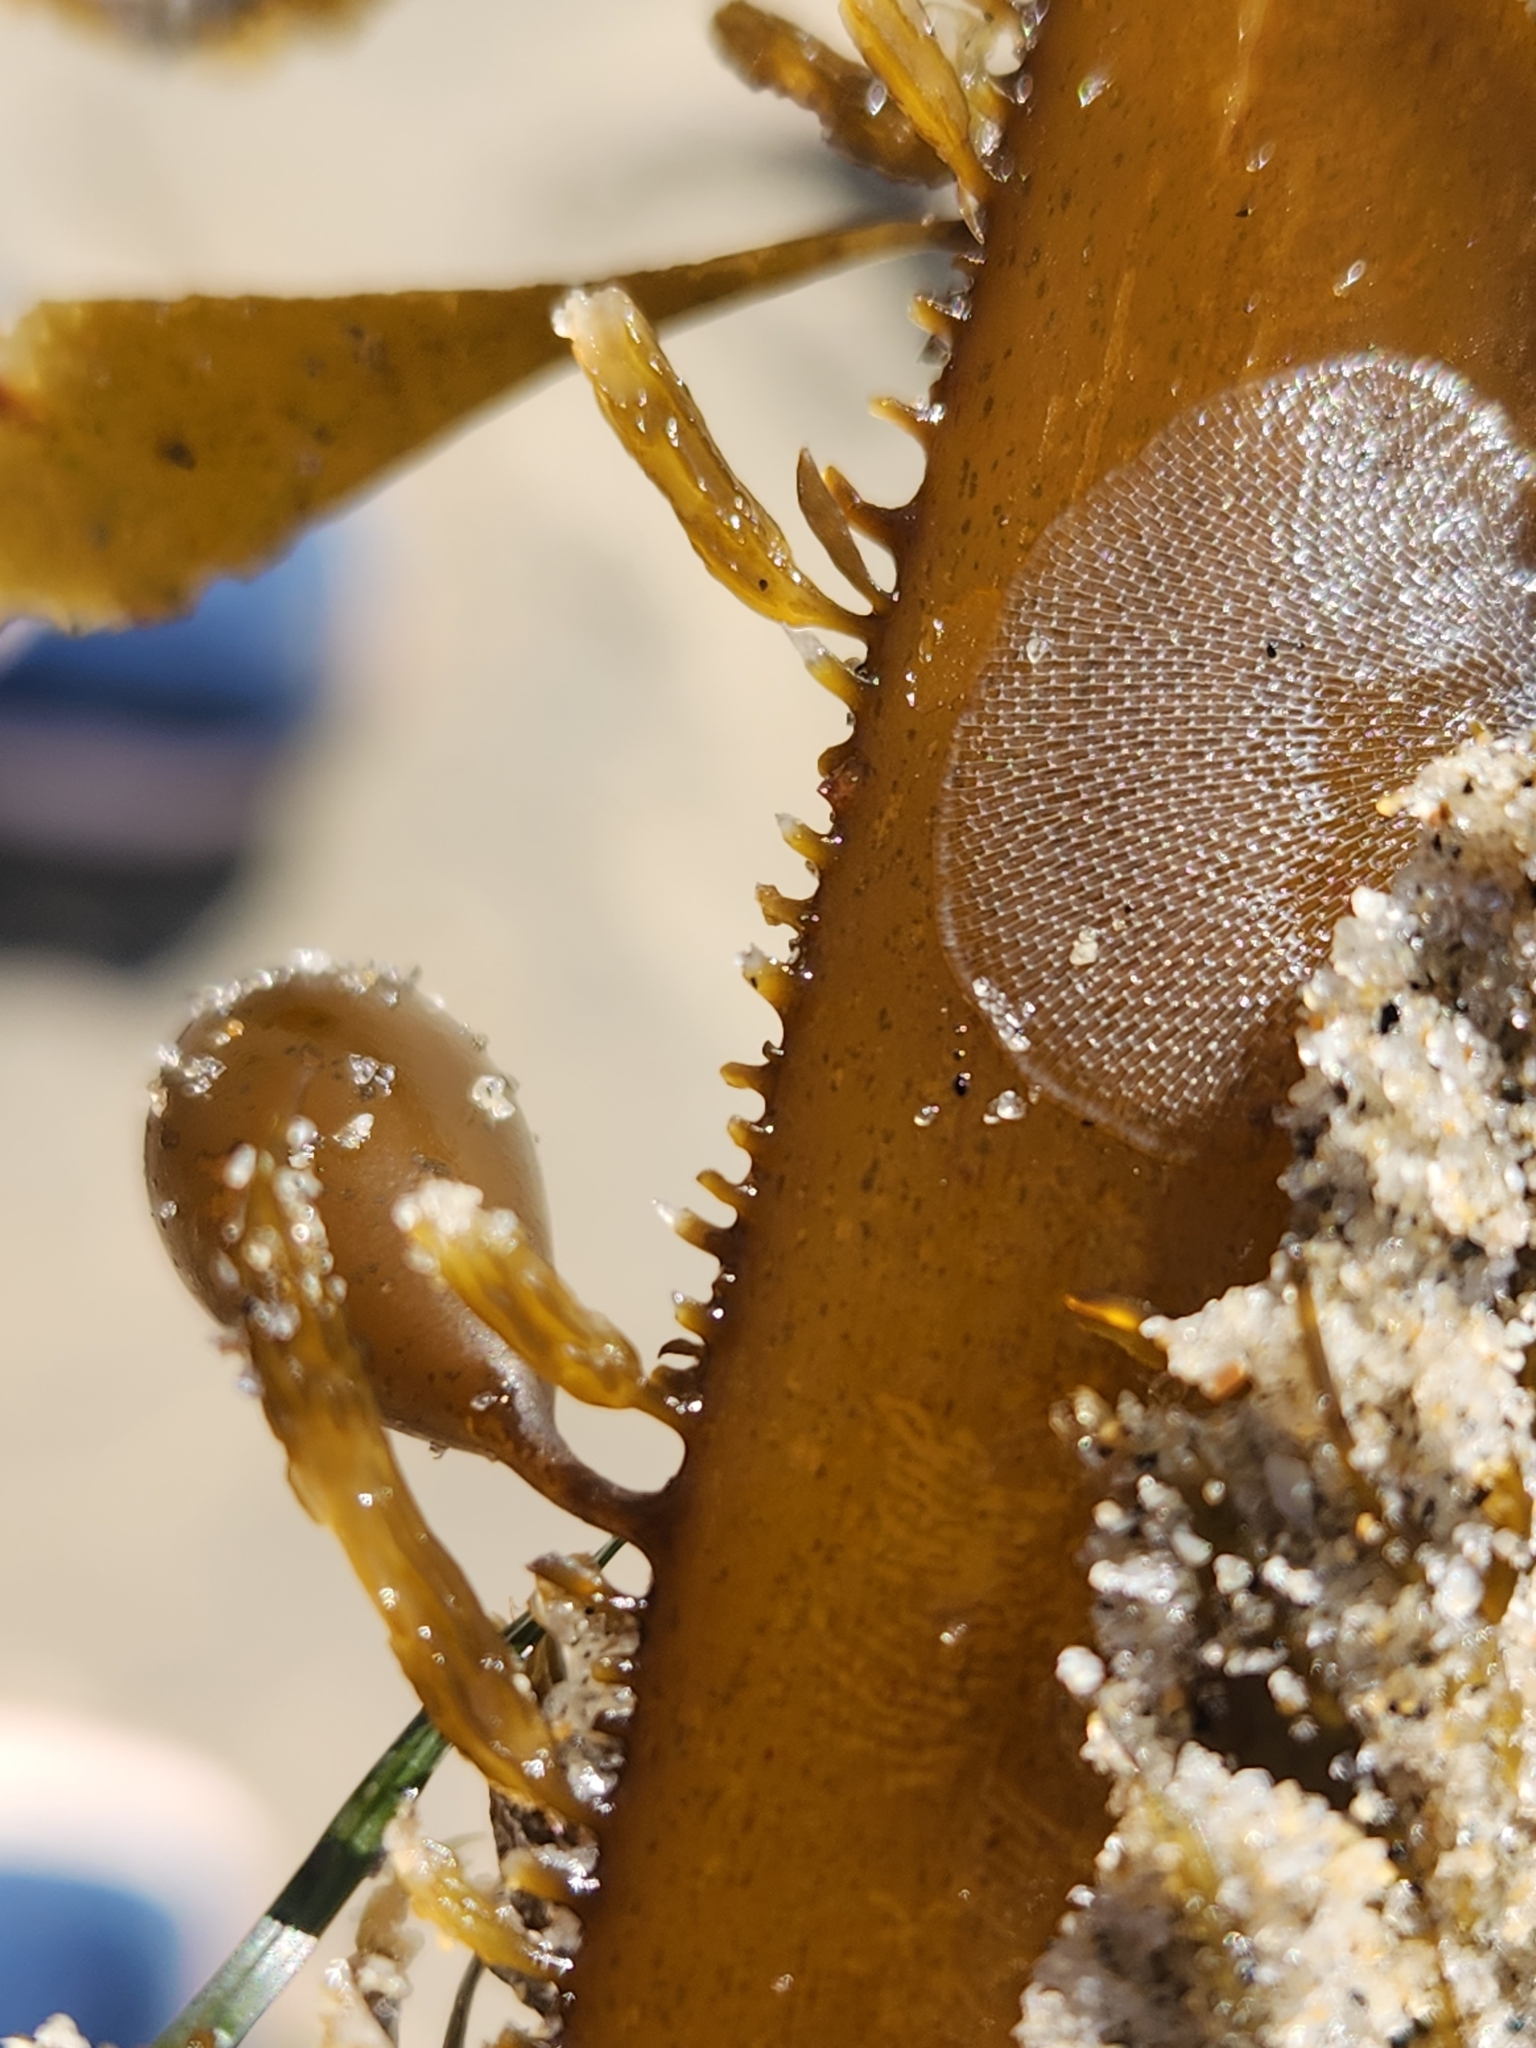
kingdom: Animalia
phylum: Bryozoa
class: Gymnolaemata
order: Cheilostomatida
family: Membraniporidae
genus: Membranipora
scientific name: Membranipora membranacea
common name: Sea mat
